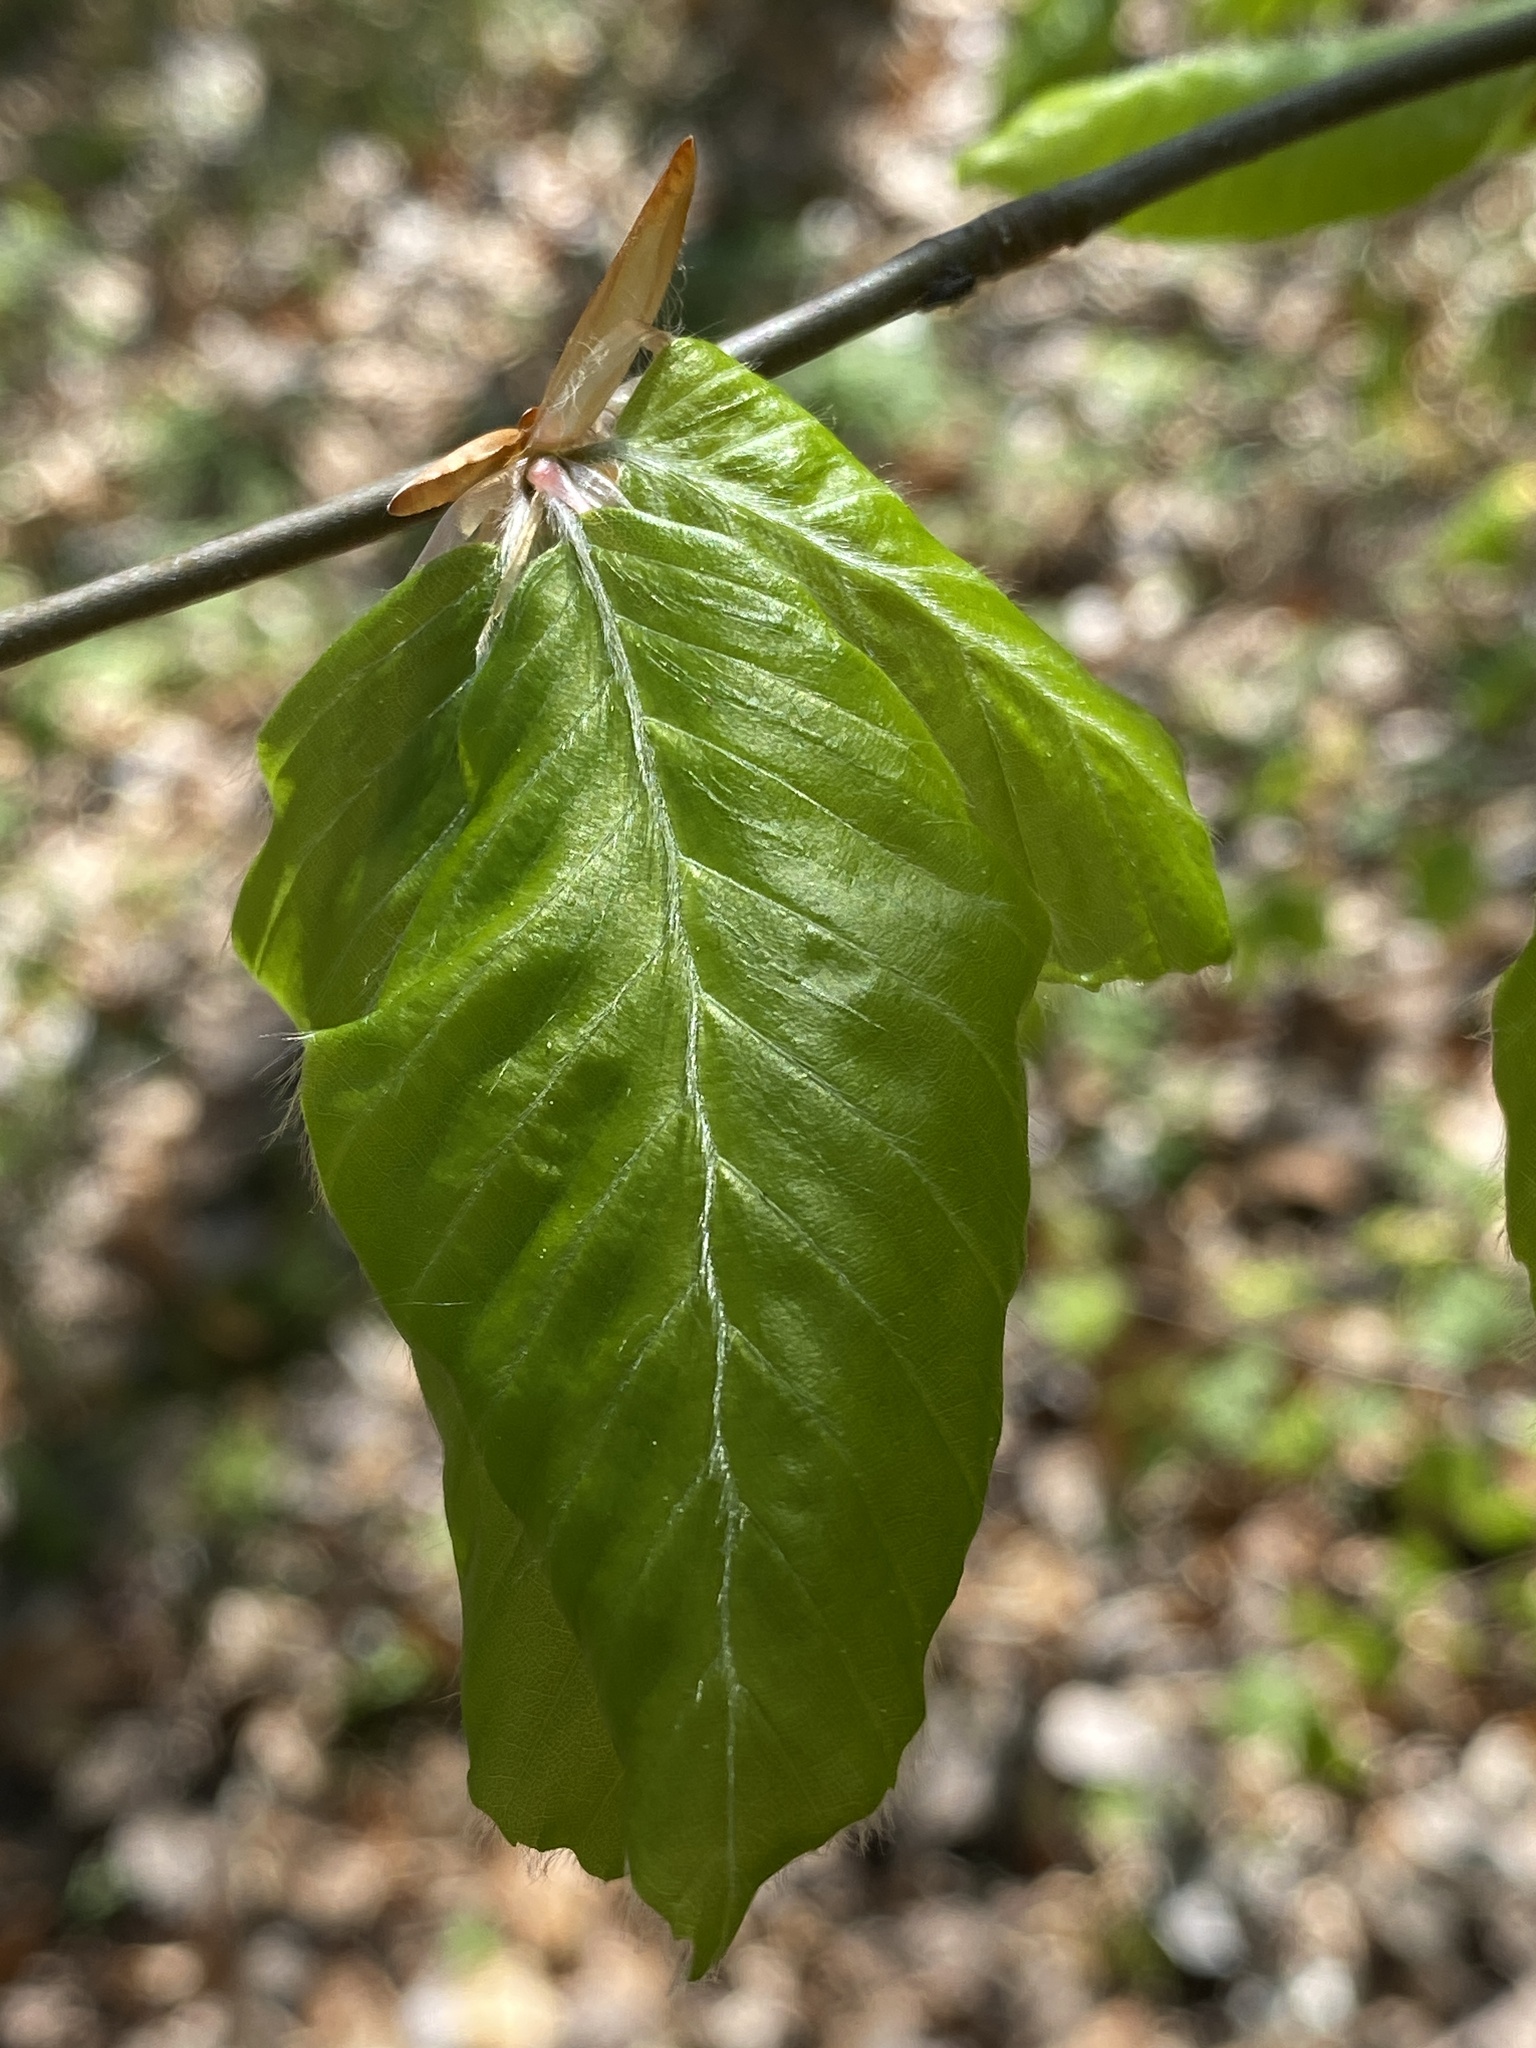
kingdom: Plantae
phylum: Tracheophyta
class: Magnoliopsida
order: Fagales
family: Fagaceae
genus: Fagus
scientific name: Fagus sylvatica
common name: Beech
